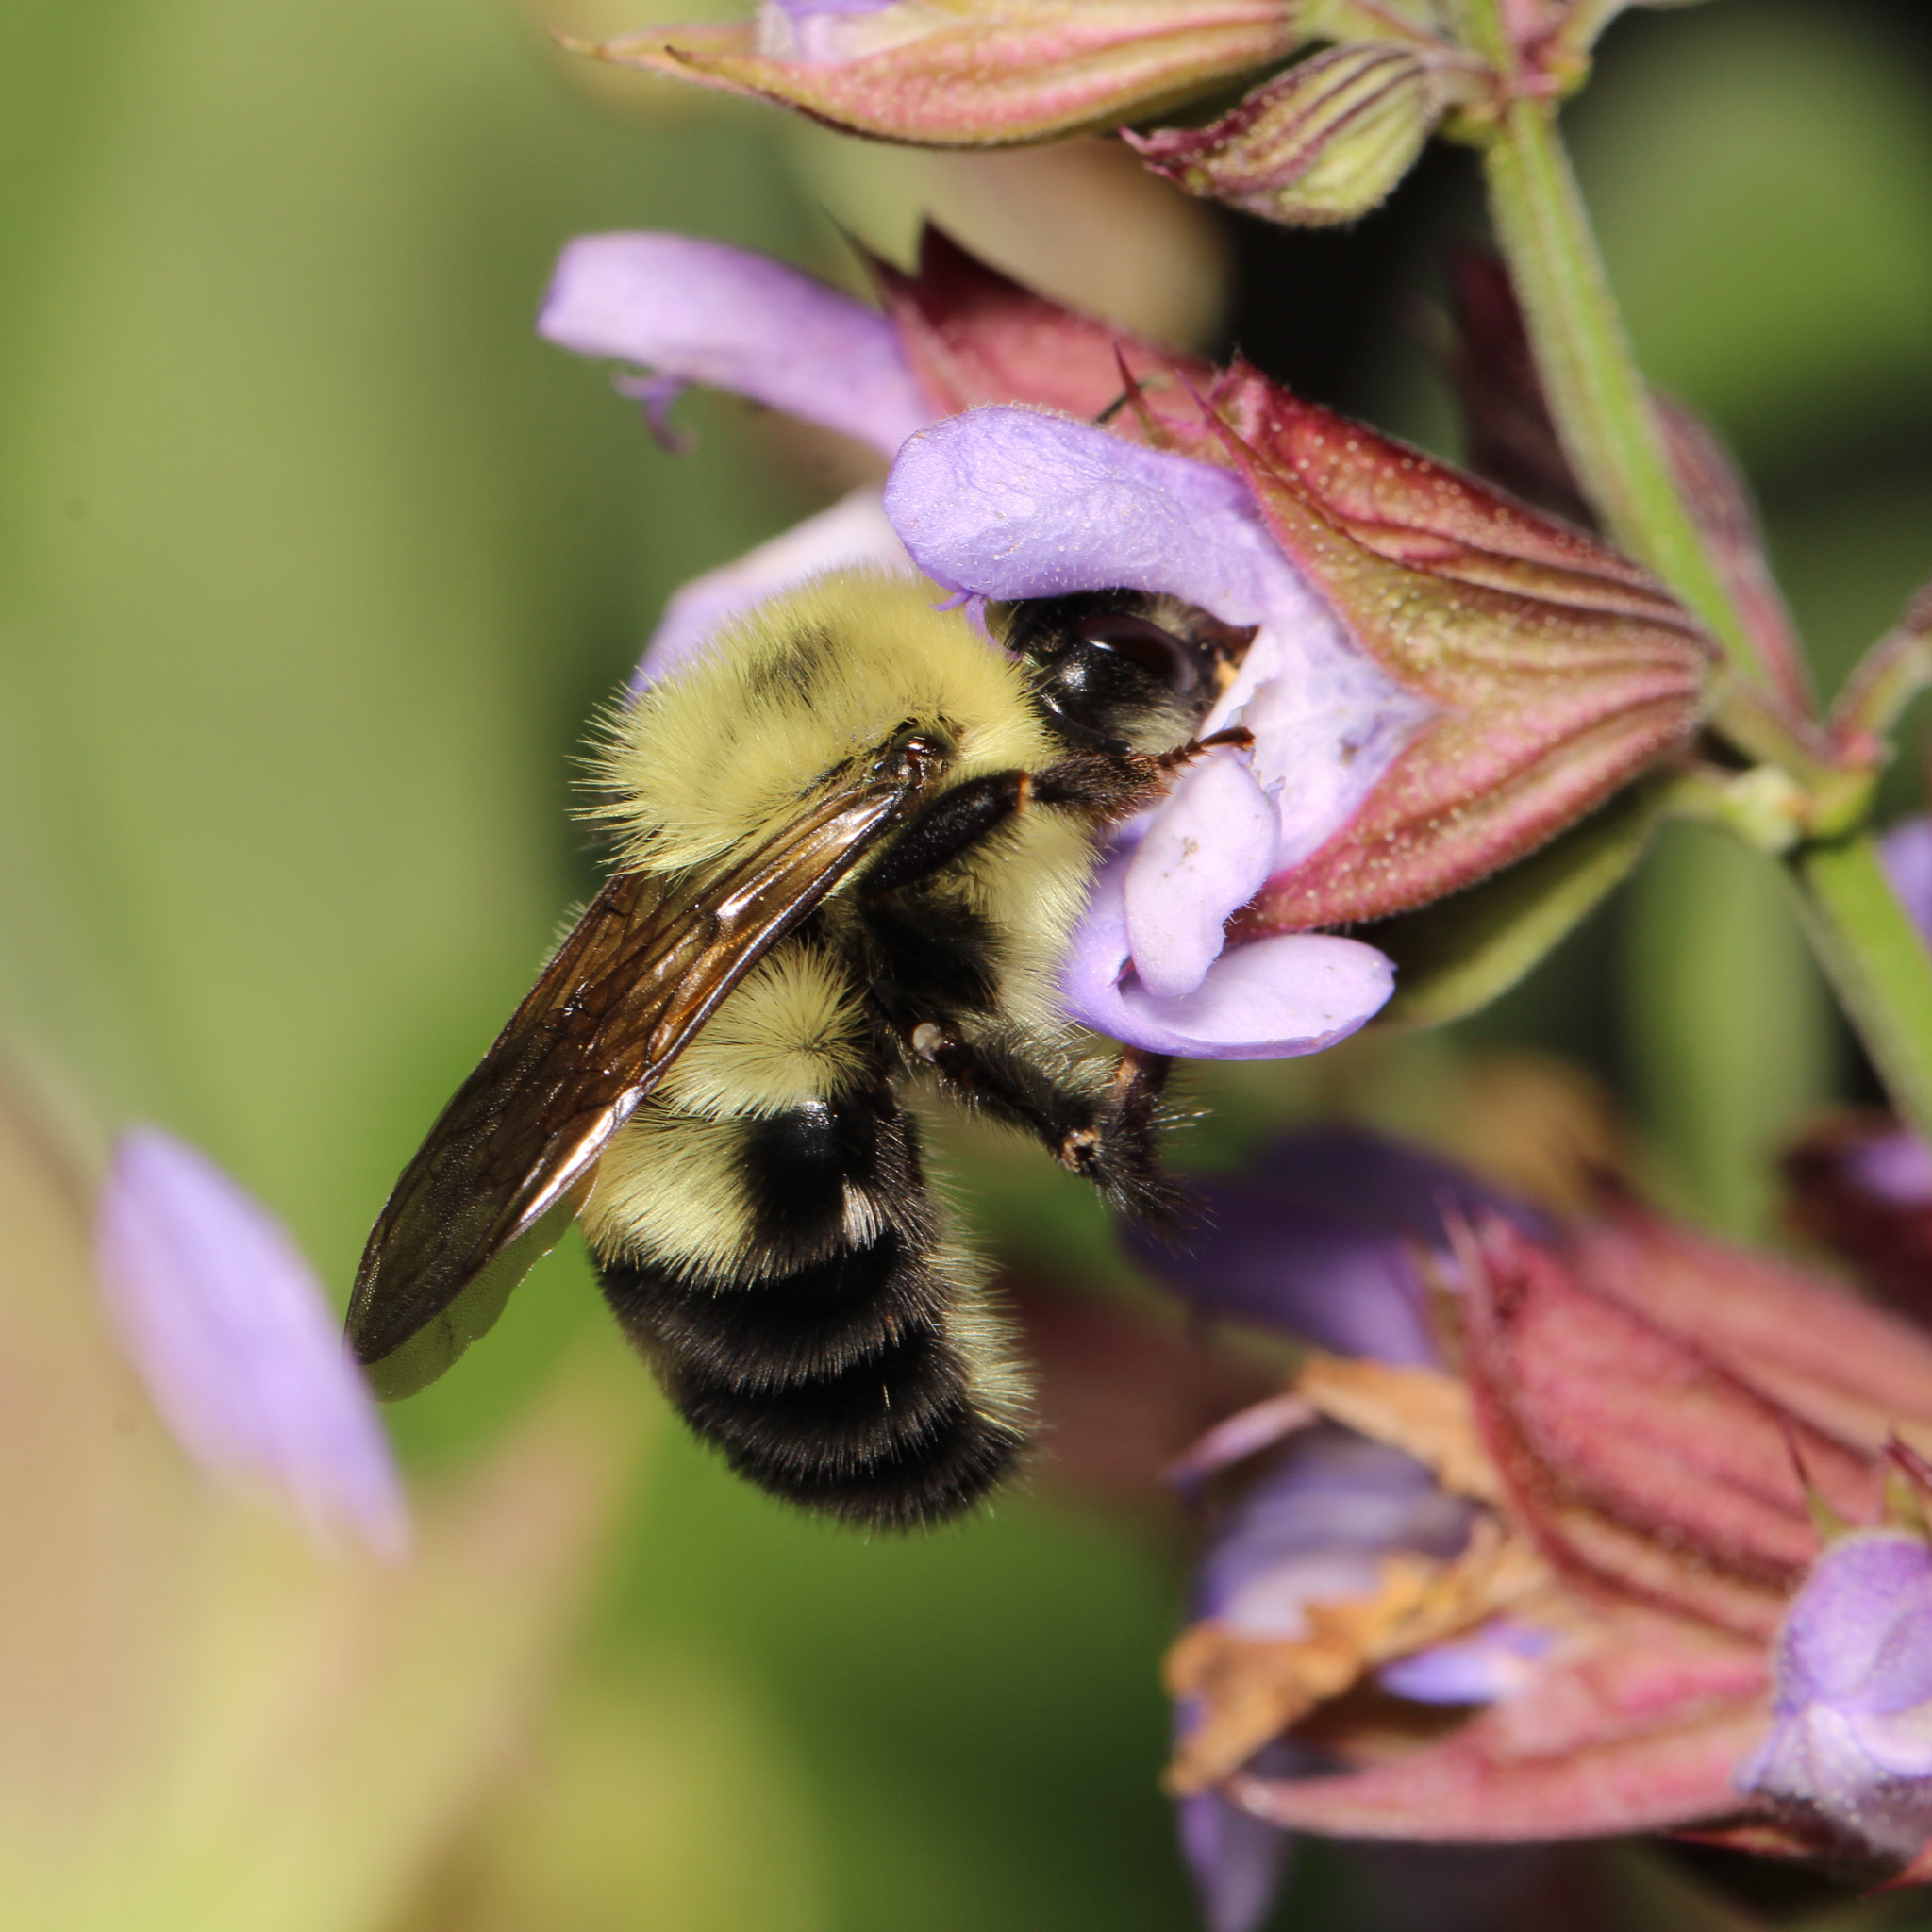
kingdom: Animalia
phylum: Arthropoda
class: Insecta
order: Hymenoptera
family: Apidae
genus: Bombus
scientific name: Bombus bimaculatus
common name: Two-spotted bumble bee
